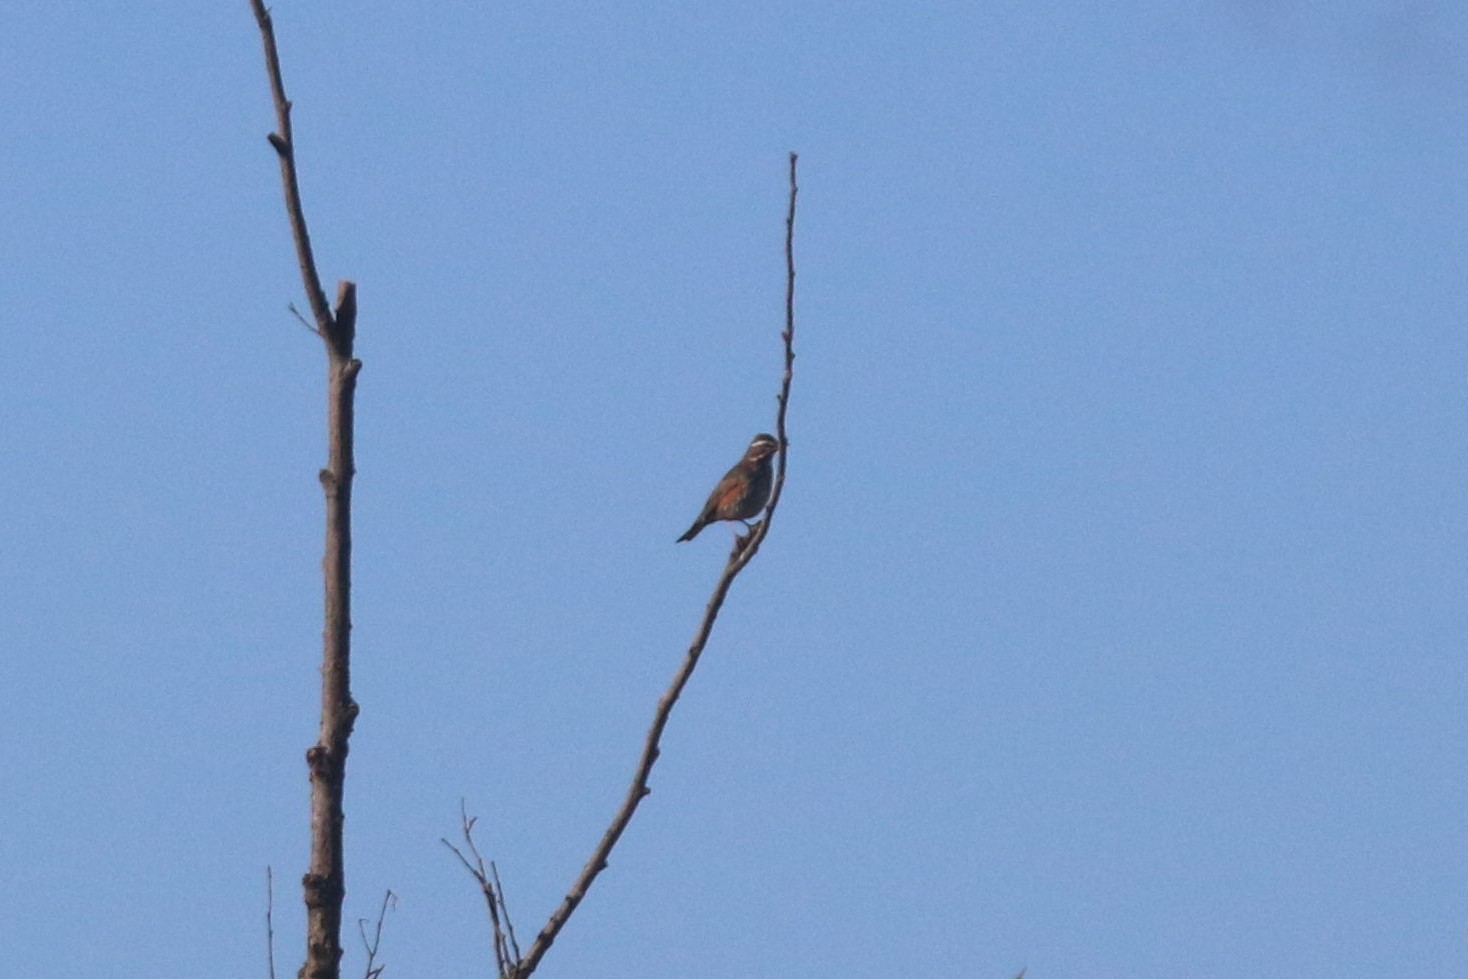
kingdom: Animalia
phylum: Chordata
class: Aves
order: Passeriformes
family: Turdidae
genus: Turdus
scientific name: Turdus iliacus
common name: Redwing
